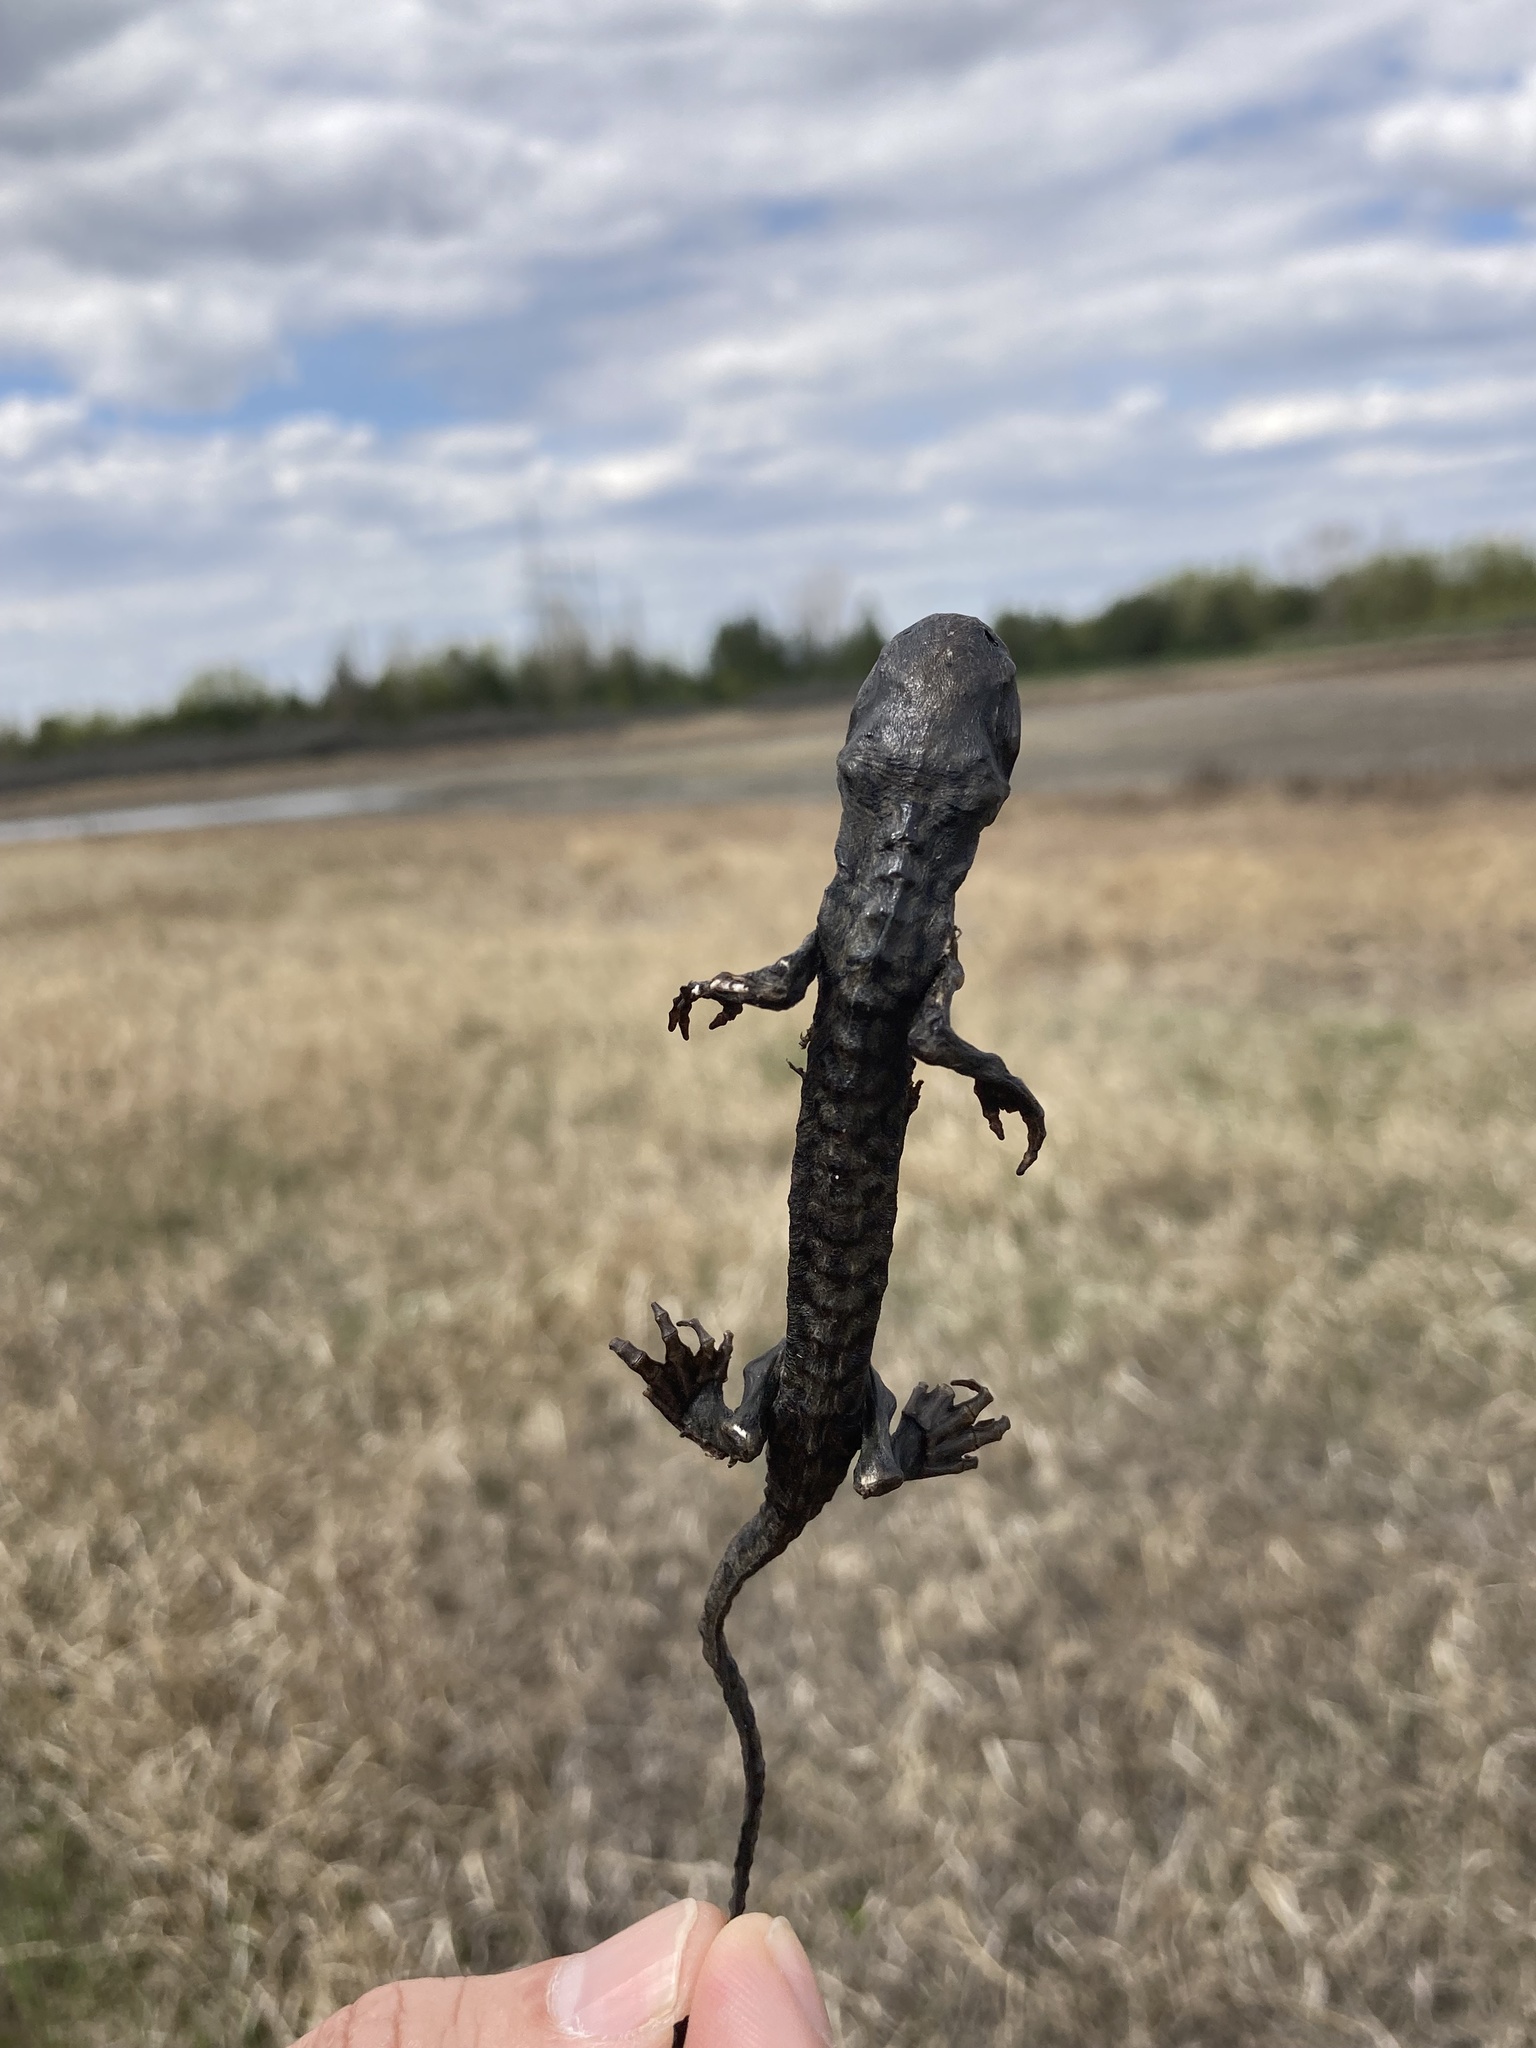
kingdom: Animalia
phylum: Chordata
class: Amphibia
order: Caudata
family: Ambystomatidae
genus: Ambystoma
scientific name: Ambystoma mavortium
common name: Western tiger salamander
